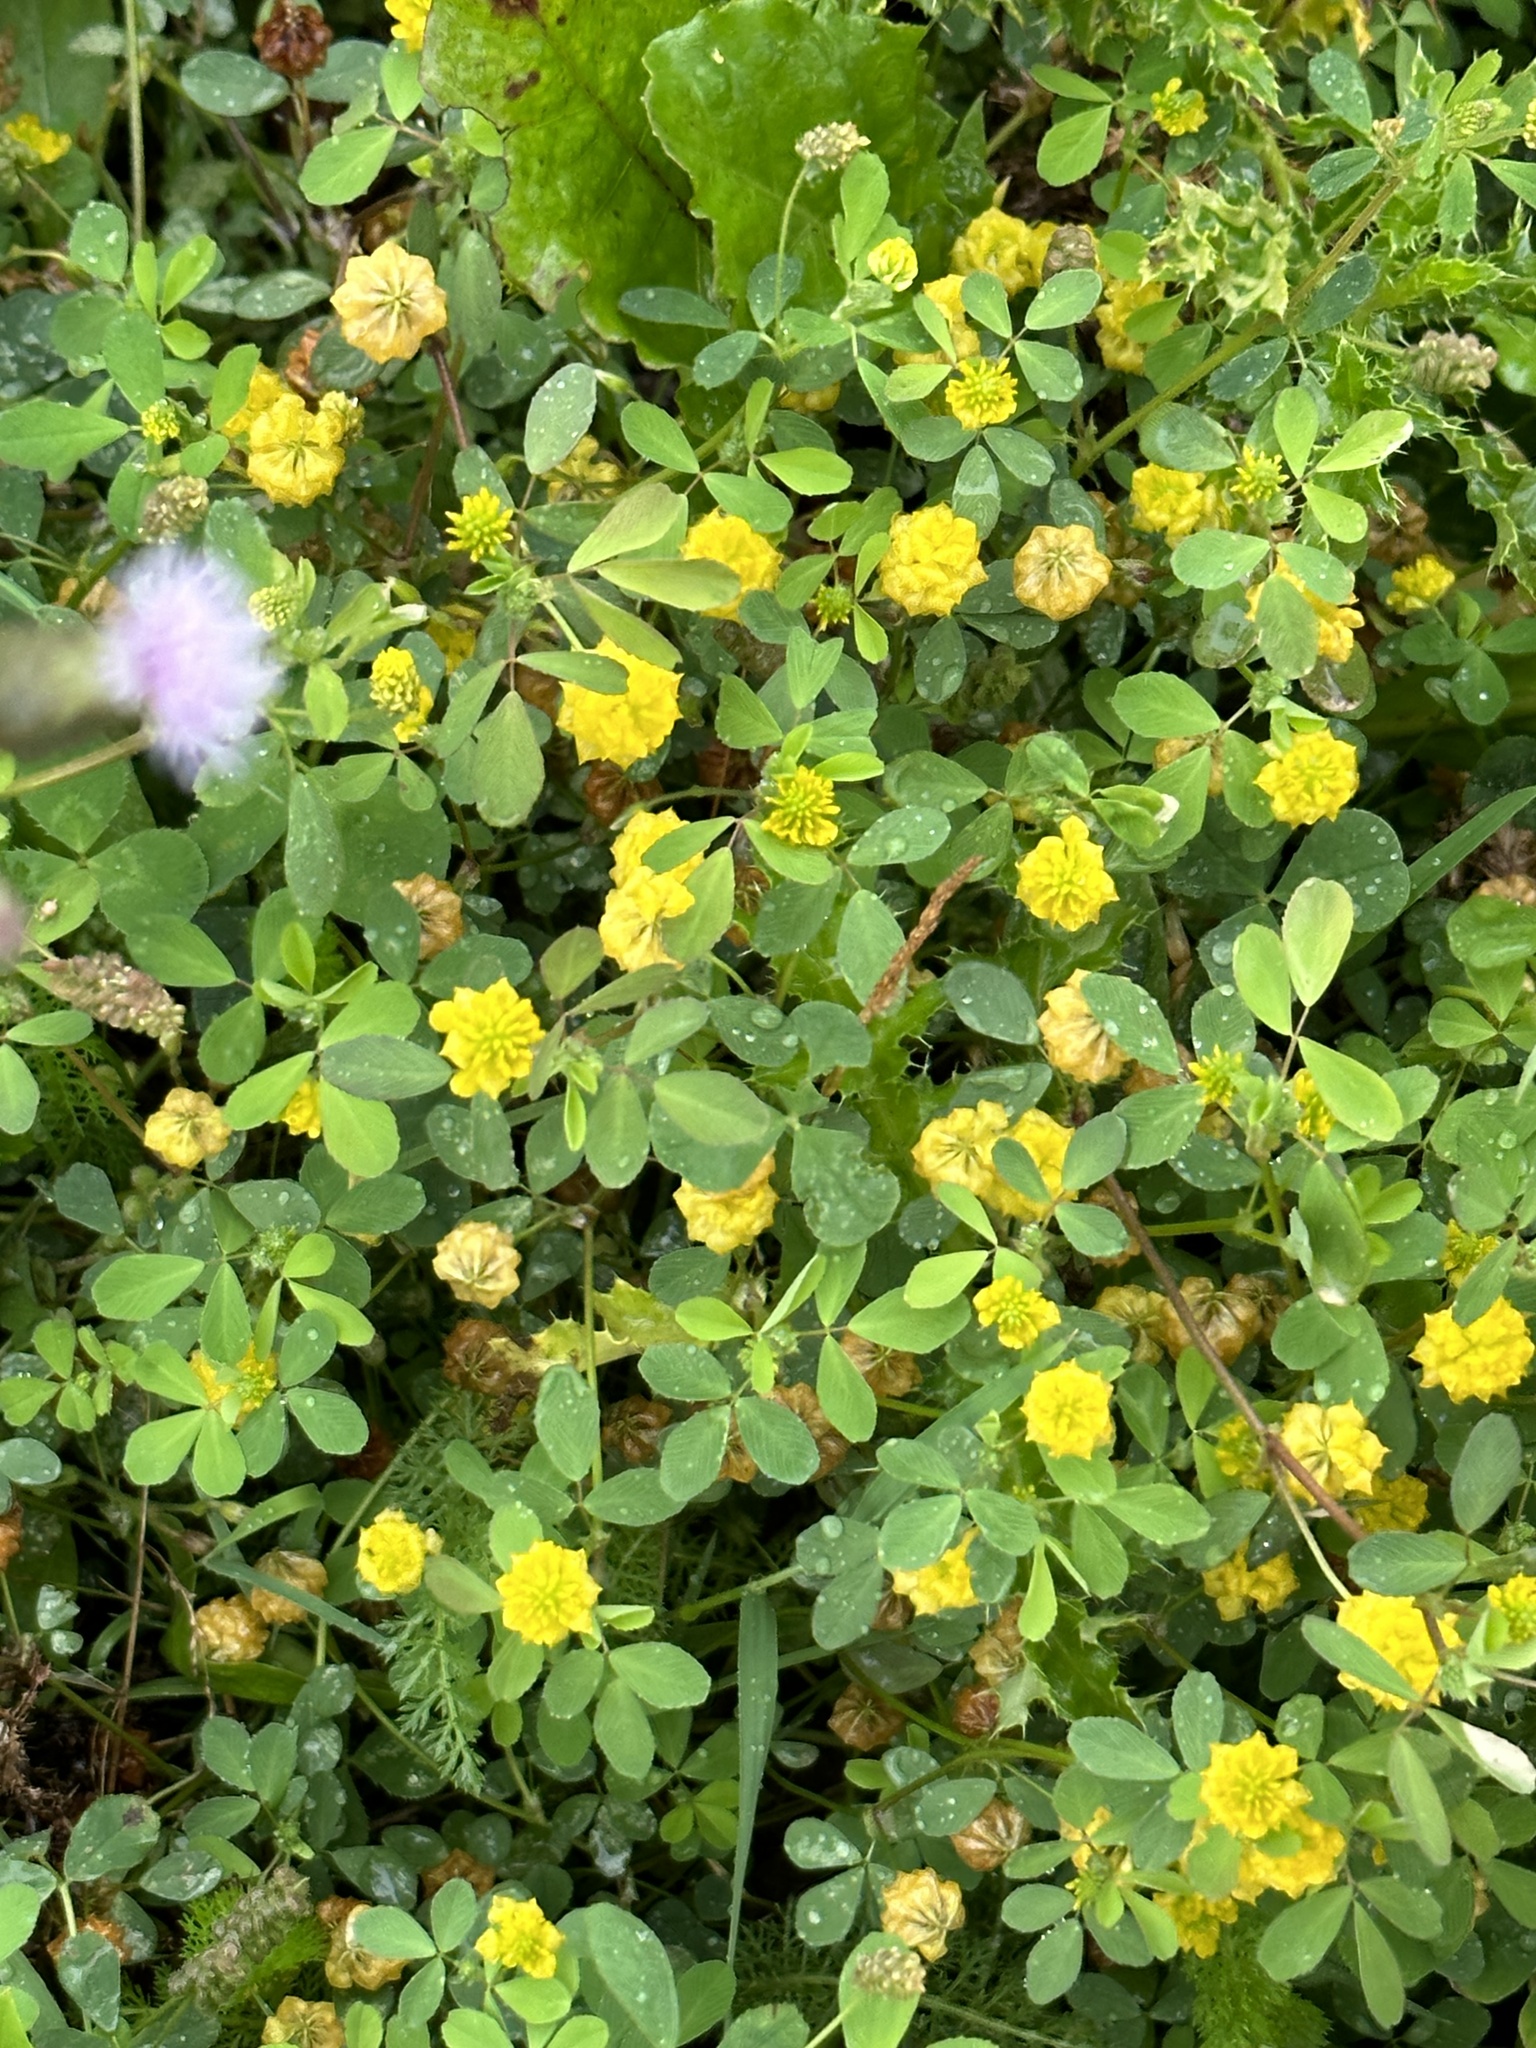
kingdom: Plantae
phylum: Tracheophyta
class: Magnoliopsida
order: Fabales
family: Fabaceae
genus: Trifolium
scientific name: Trifolium campestre
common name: Field clover
